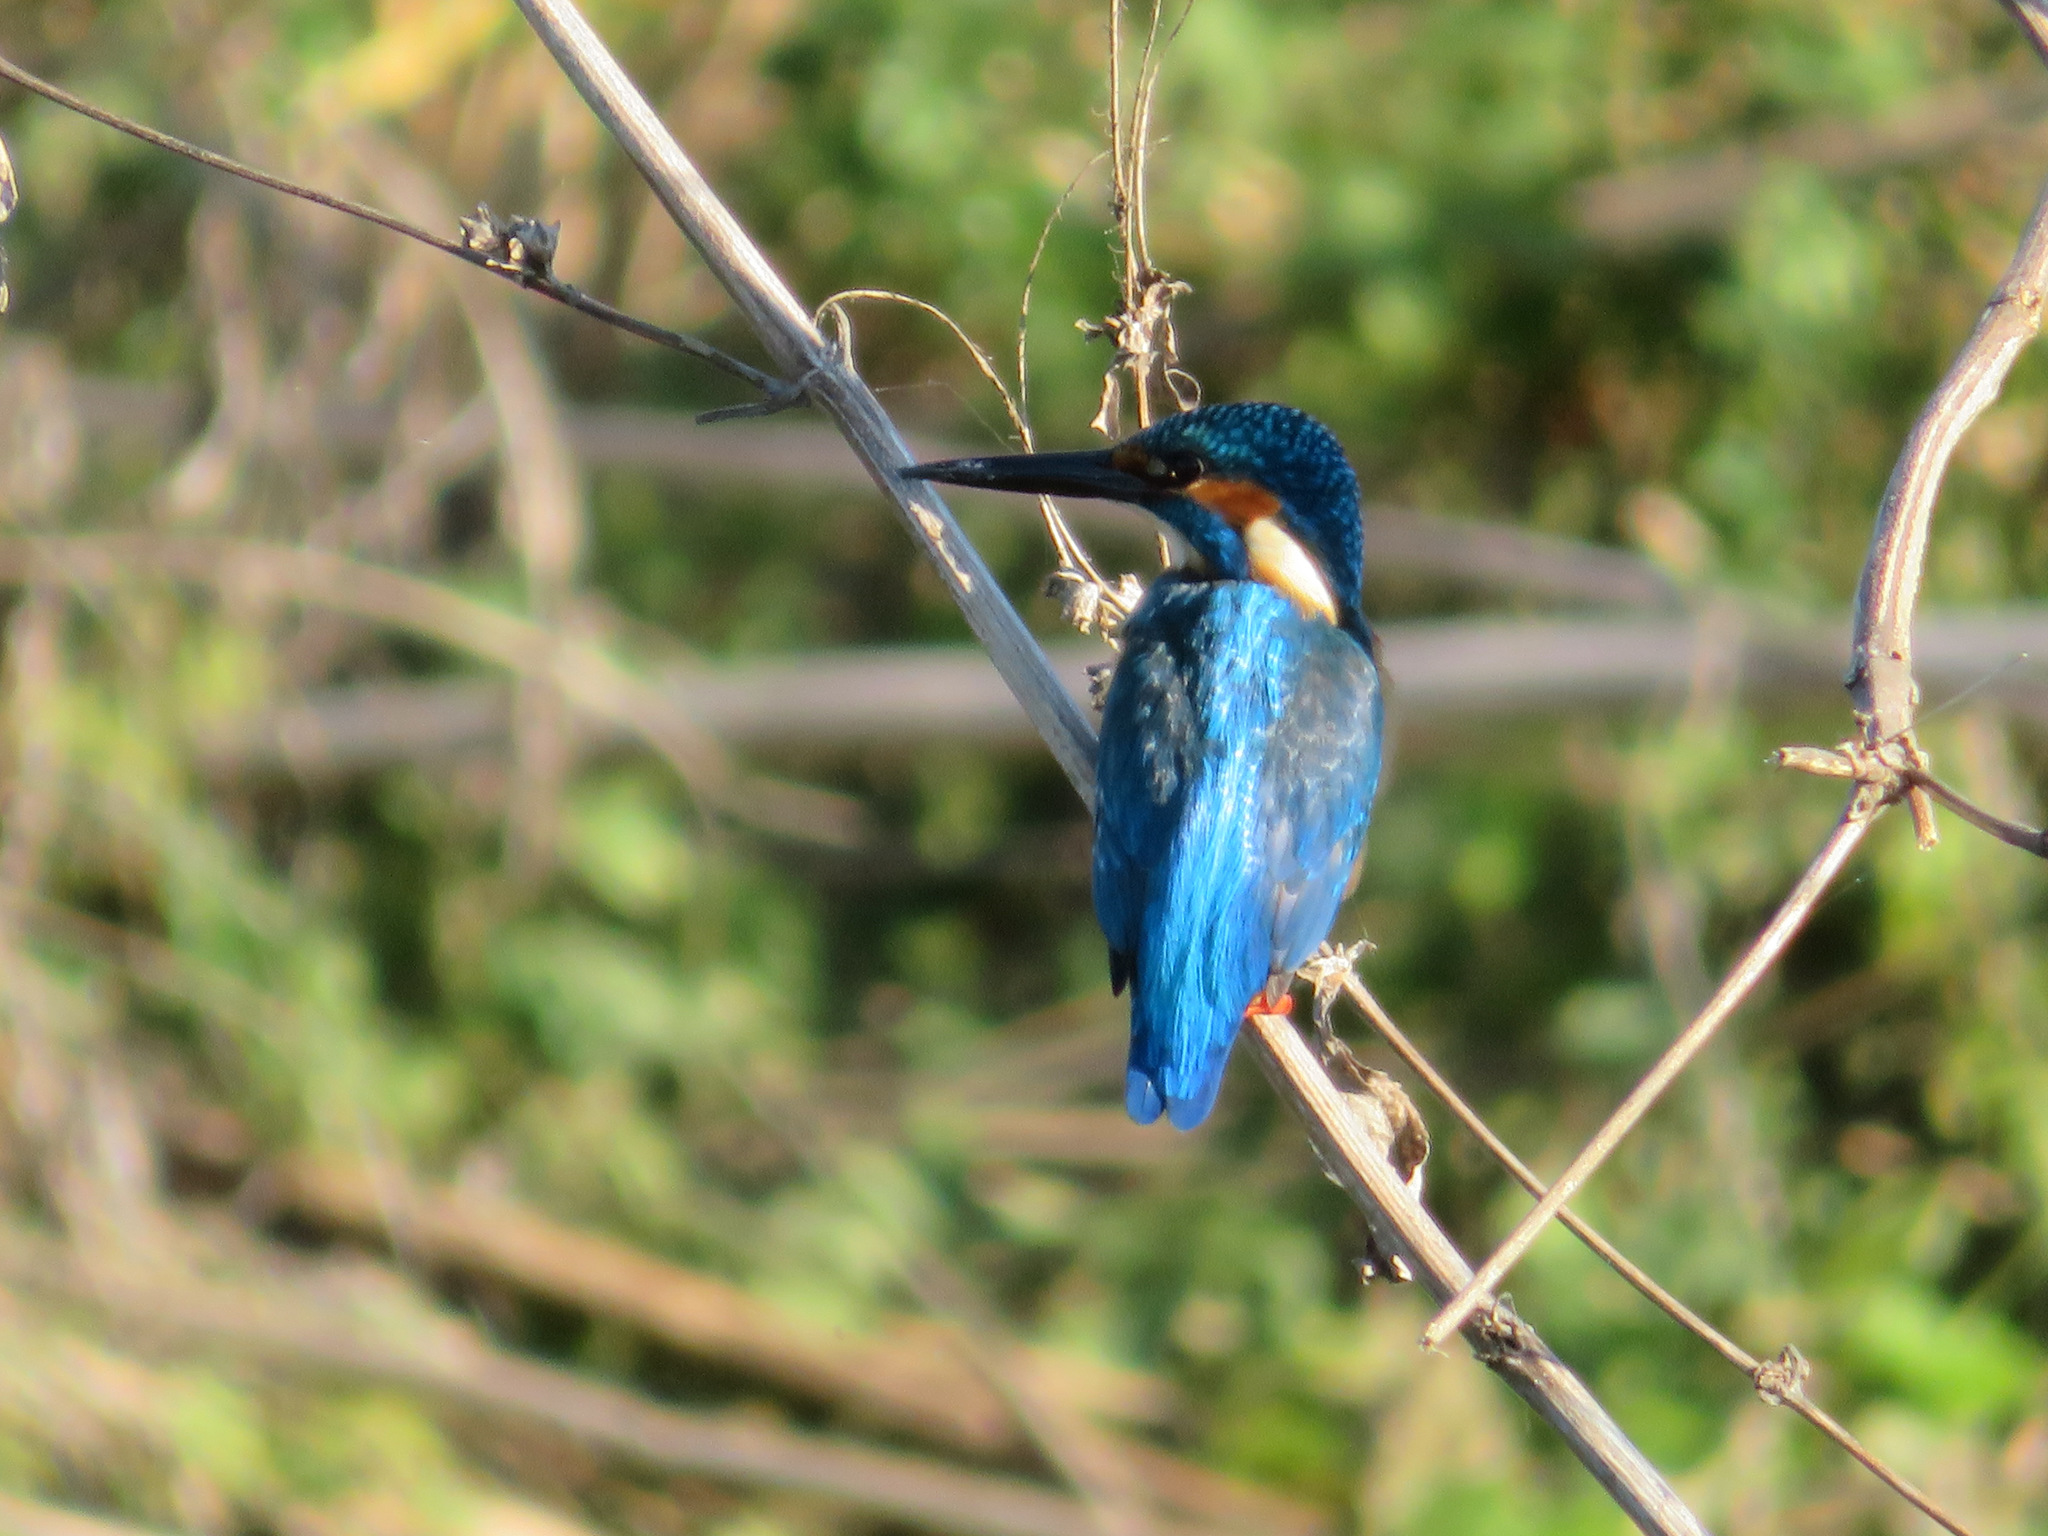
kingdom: Animalia
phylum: Chordata
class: Aves
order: Coraciiformes
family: Alcedinidae
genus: Alcedo
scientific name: Alcedo atthis
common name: Common kingfisher
